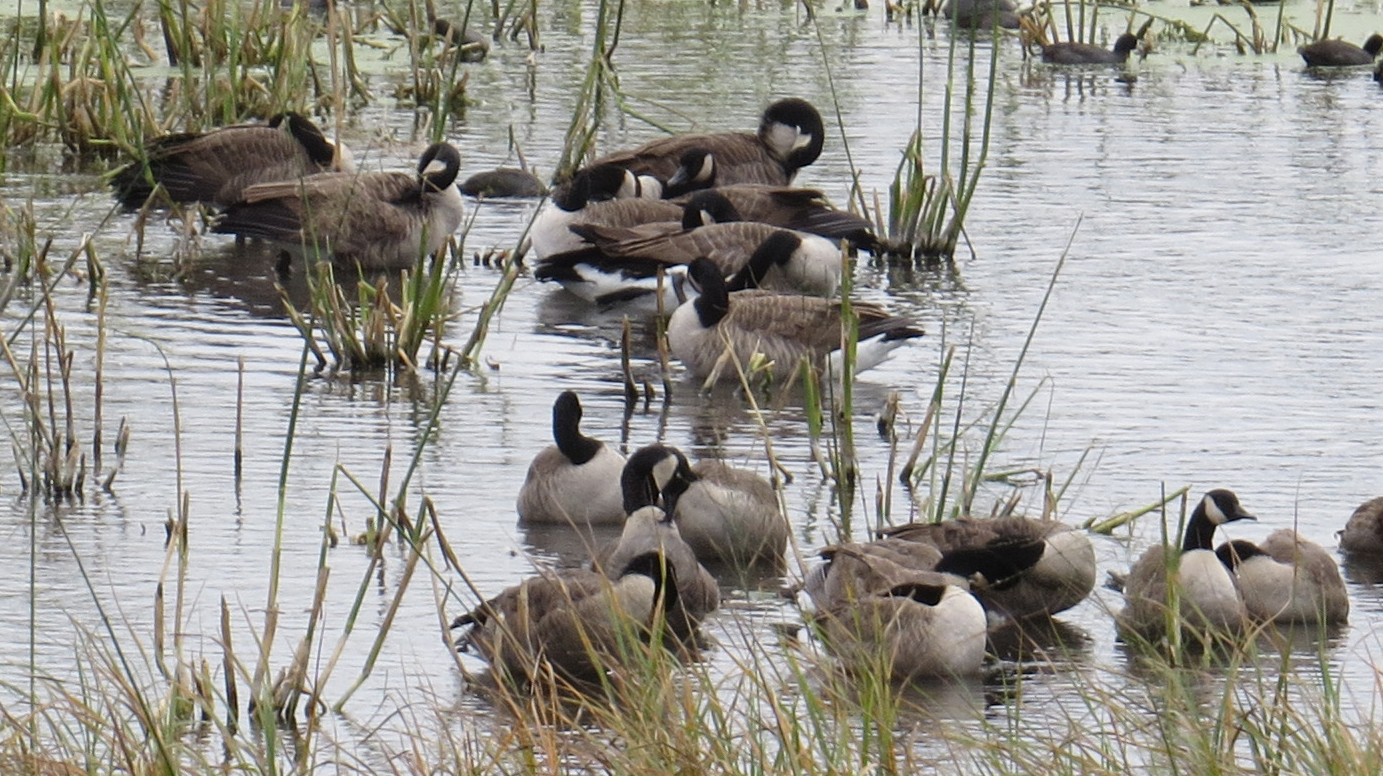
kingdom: Animalia
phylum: Chordata
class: Aves
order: Anseriformes
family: Anatidae
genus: Branta
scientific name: Branta canadensis
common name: Canada goose
